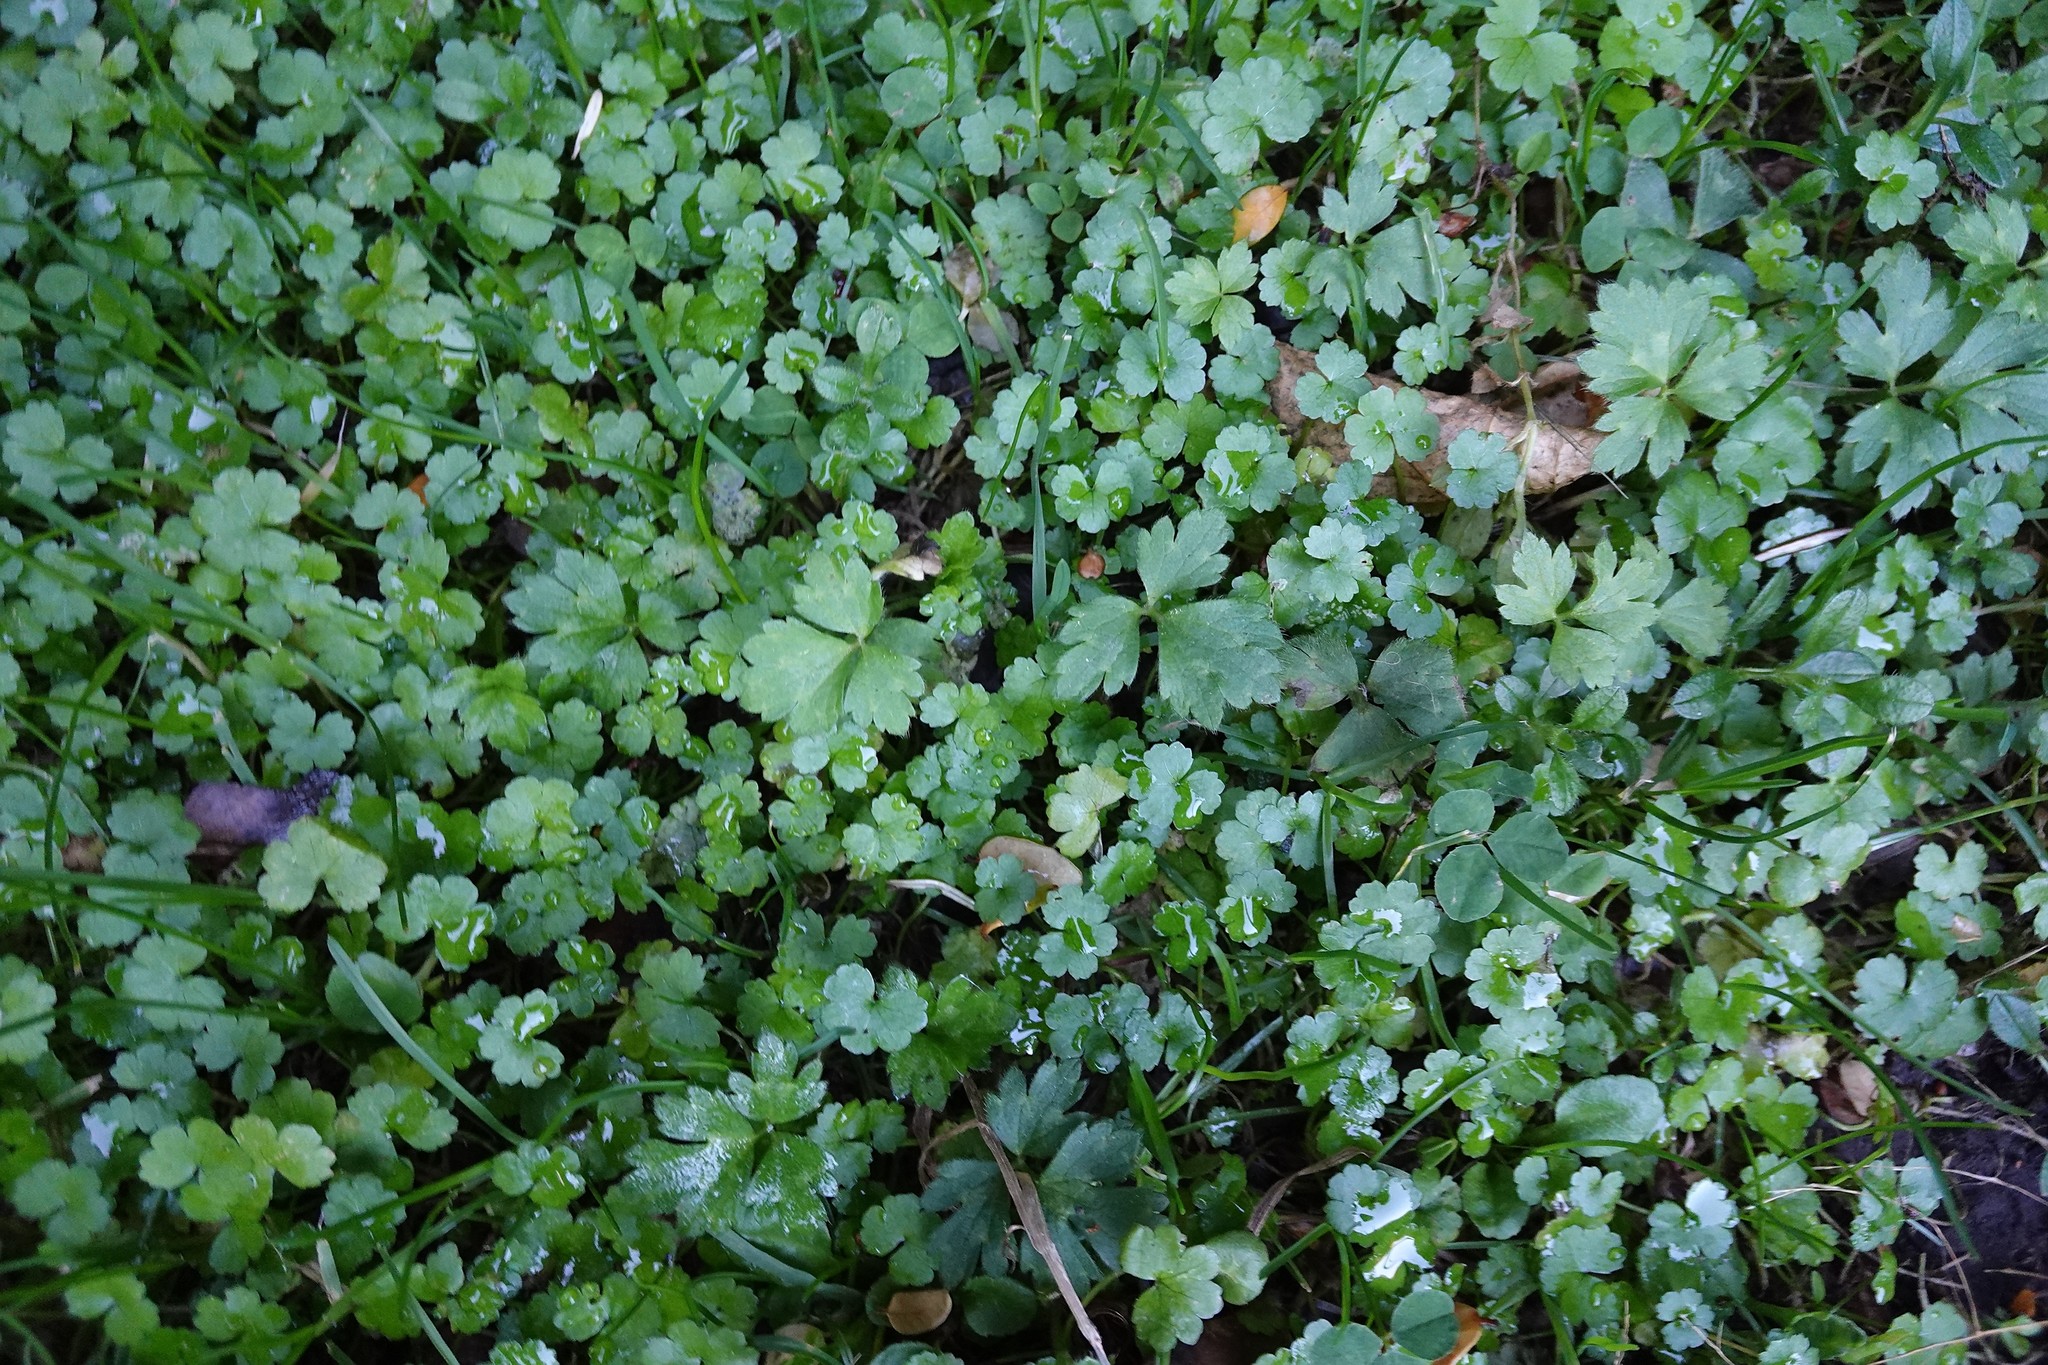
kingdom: Plantae
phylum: Tracheophyta
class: Magnoliopsida
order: Apiales
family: Araliaceae
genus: Hydrocotyle
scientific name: Hydrocotyle heteromeria
